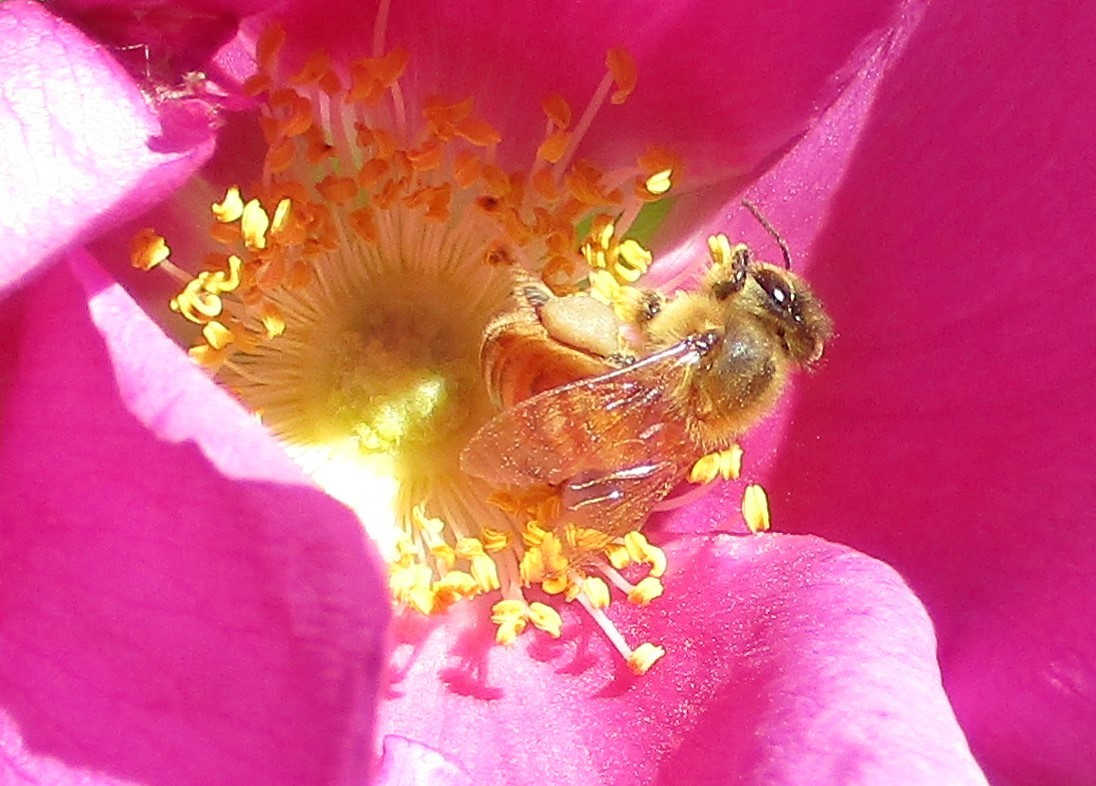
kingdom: Animalia
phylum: Arthropoda
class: Insecta
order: Hymenoptera
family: Apidae
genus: Apis
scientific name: Apis mellifera
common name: Honey bee
